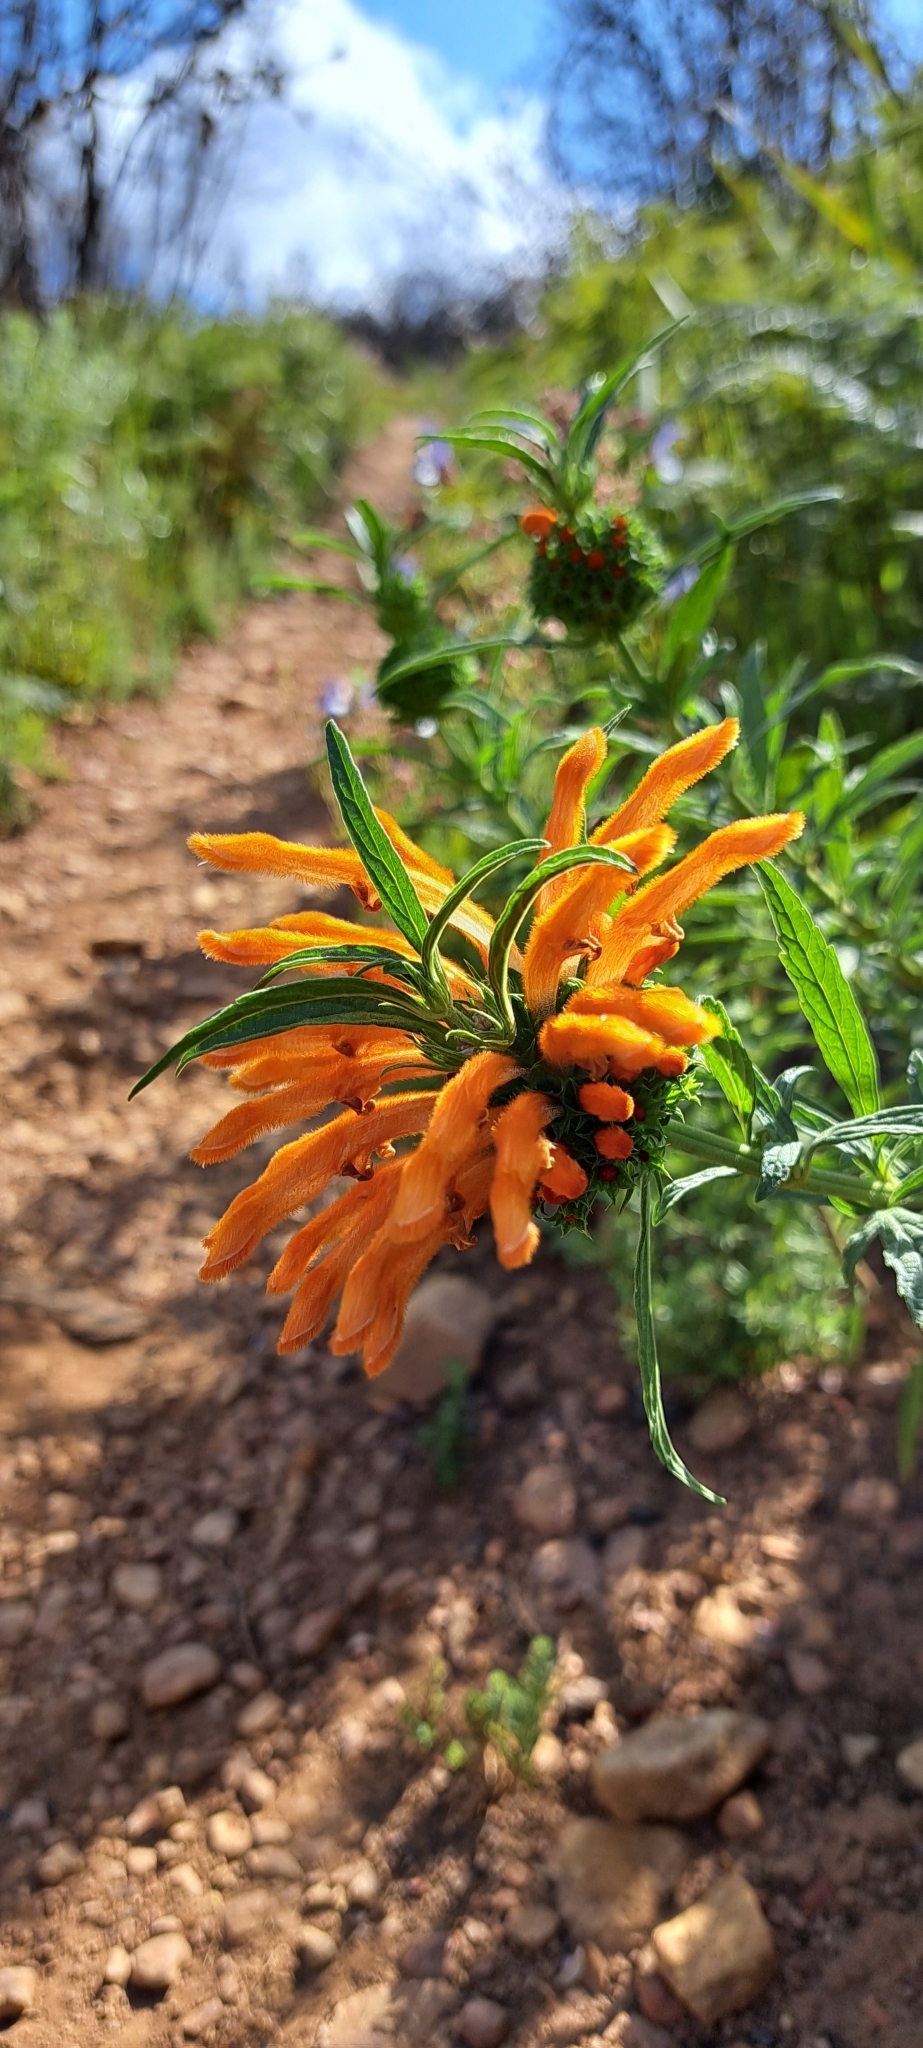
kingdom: Plantae
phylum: Tracheophyta
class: Magnoliopsida
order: Lamiales
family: Lamiaceae
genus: Leonotis
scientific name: Leonotis leonurus
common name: Lion's ear
